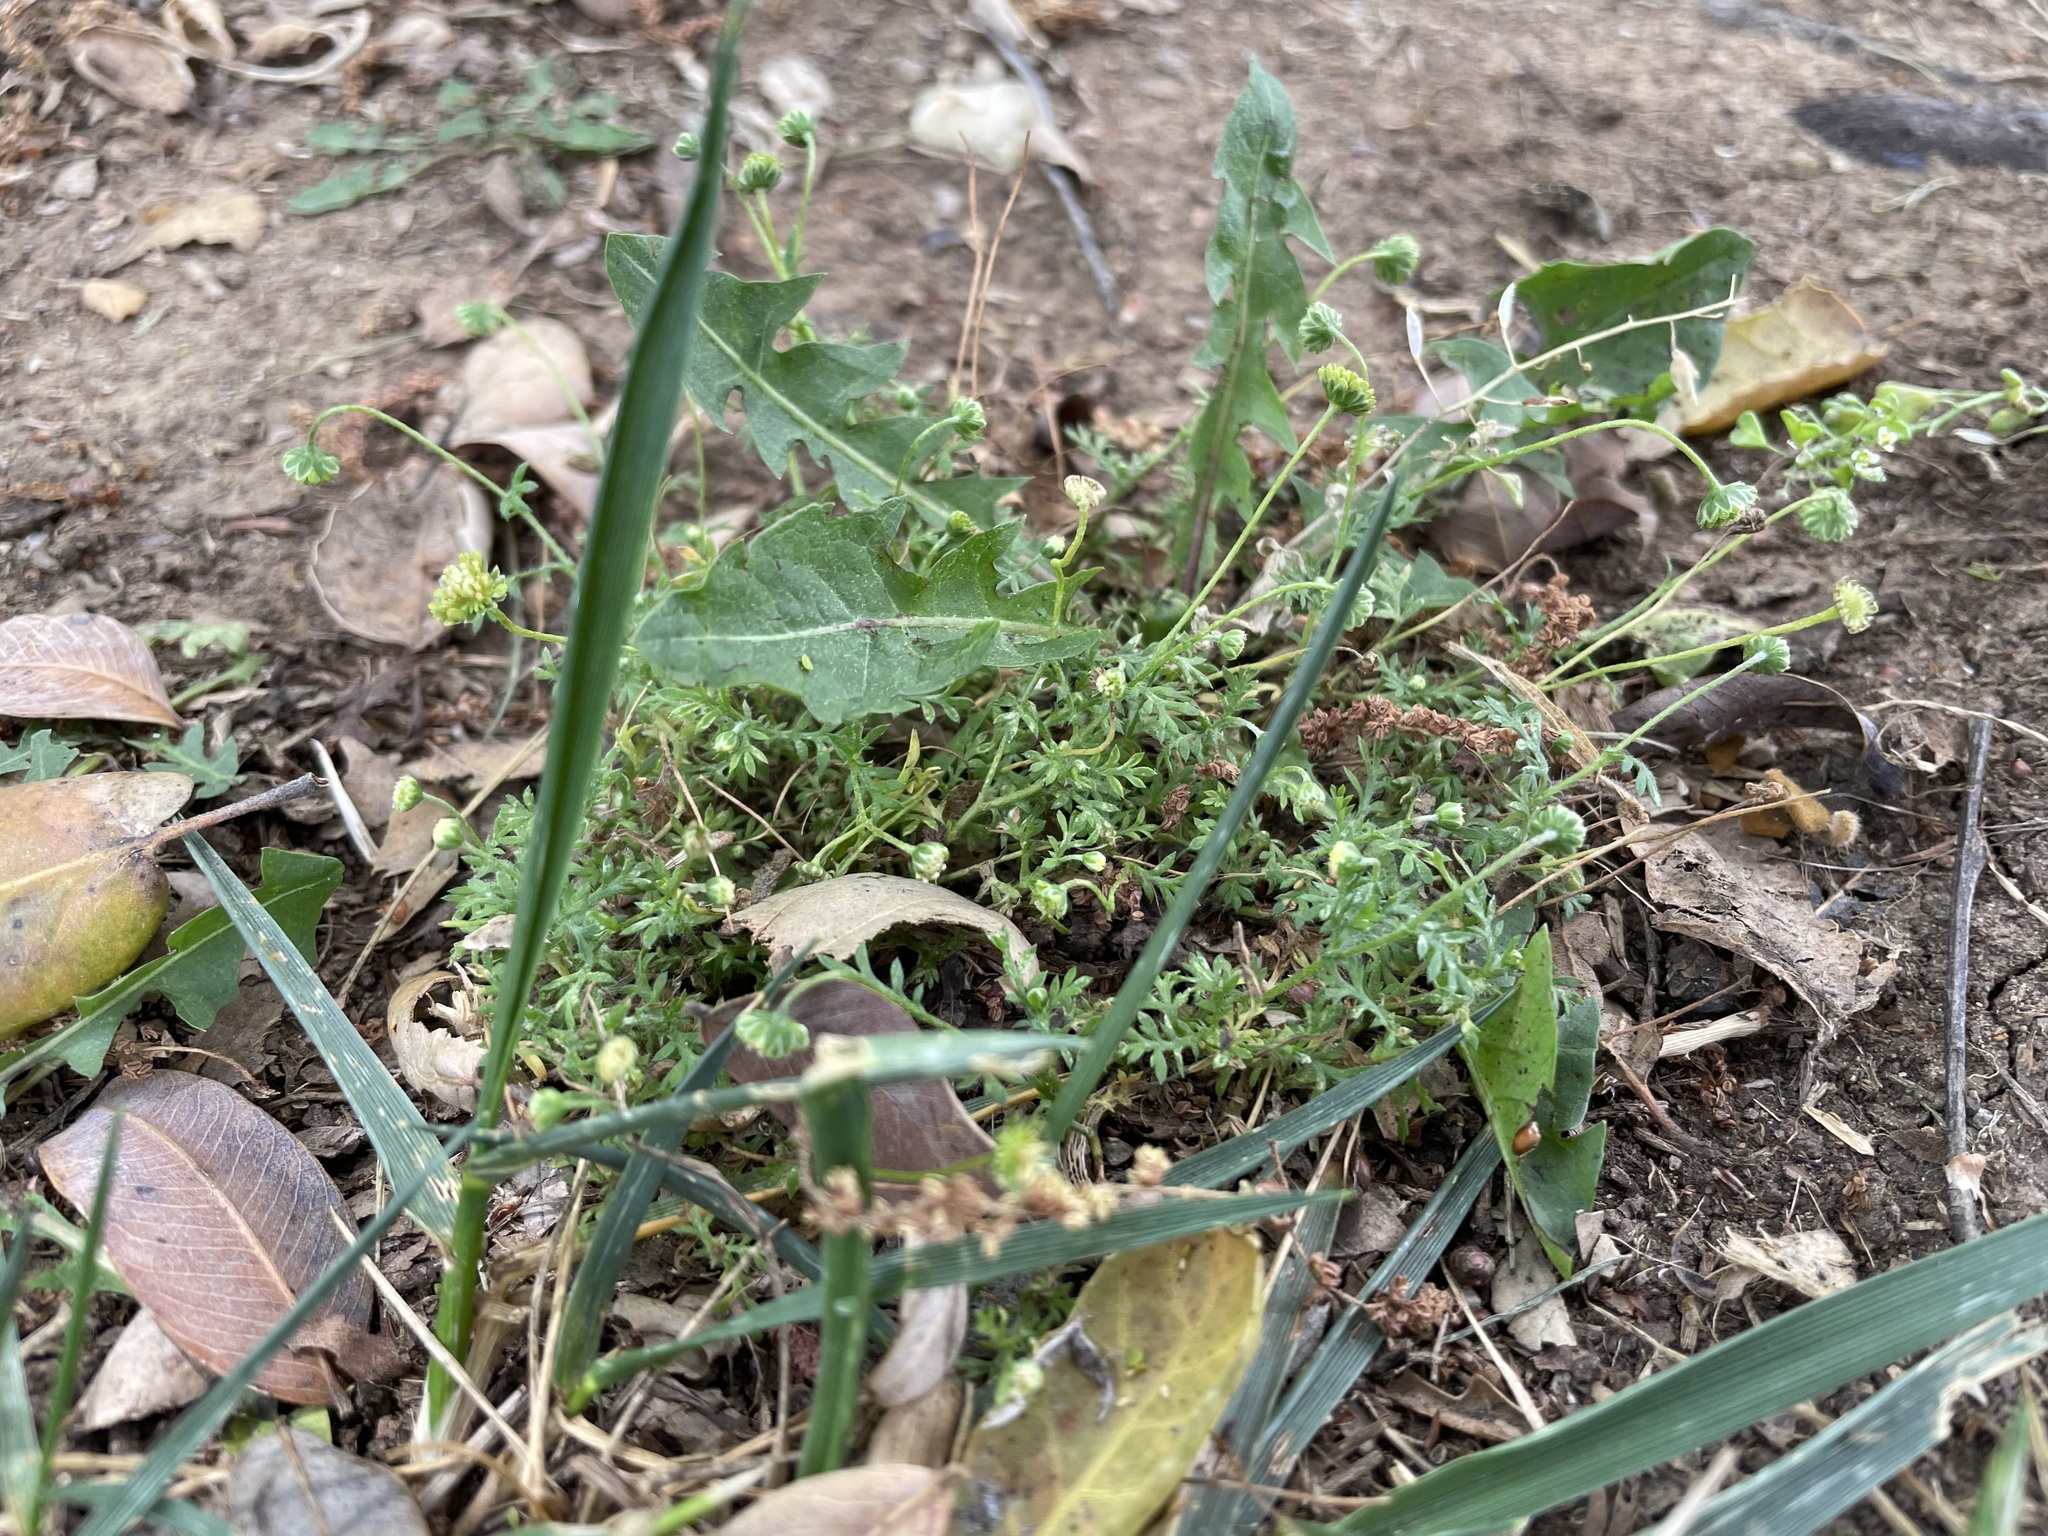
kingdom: Plantae
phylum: Tracheophyta
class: Magnoliopsida
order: Asterales
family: Asteraceae
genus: Cotula
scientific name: Cotula australis
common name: Australian waterbuttons
